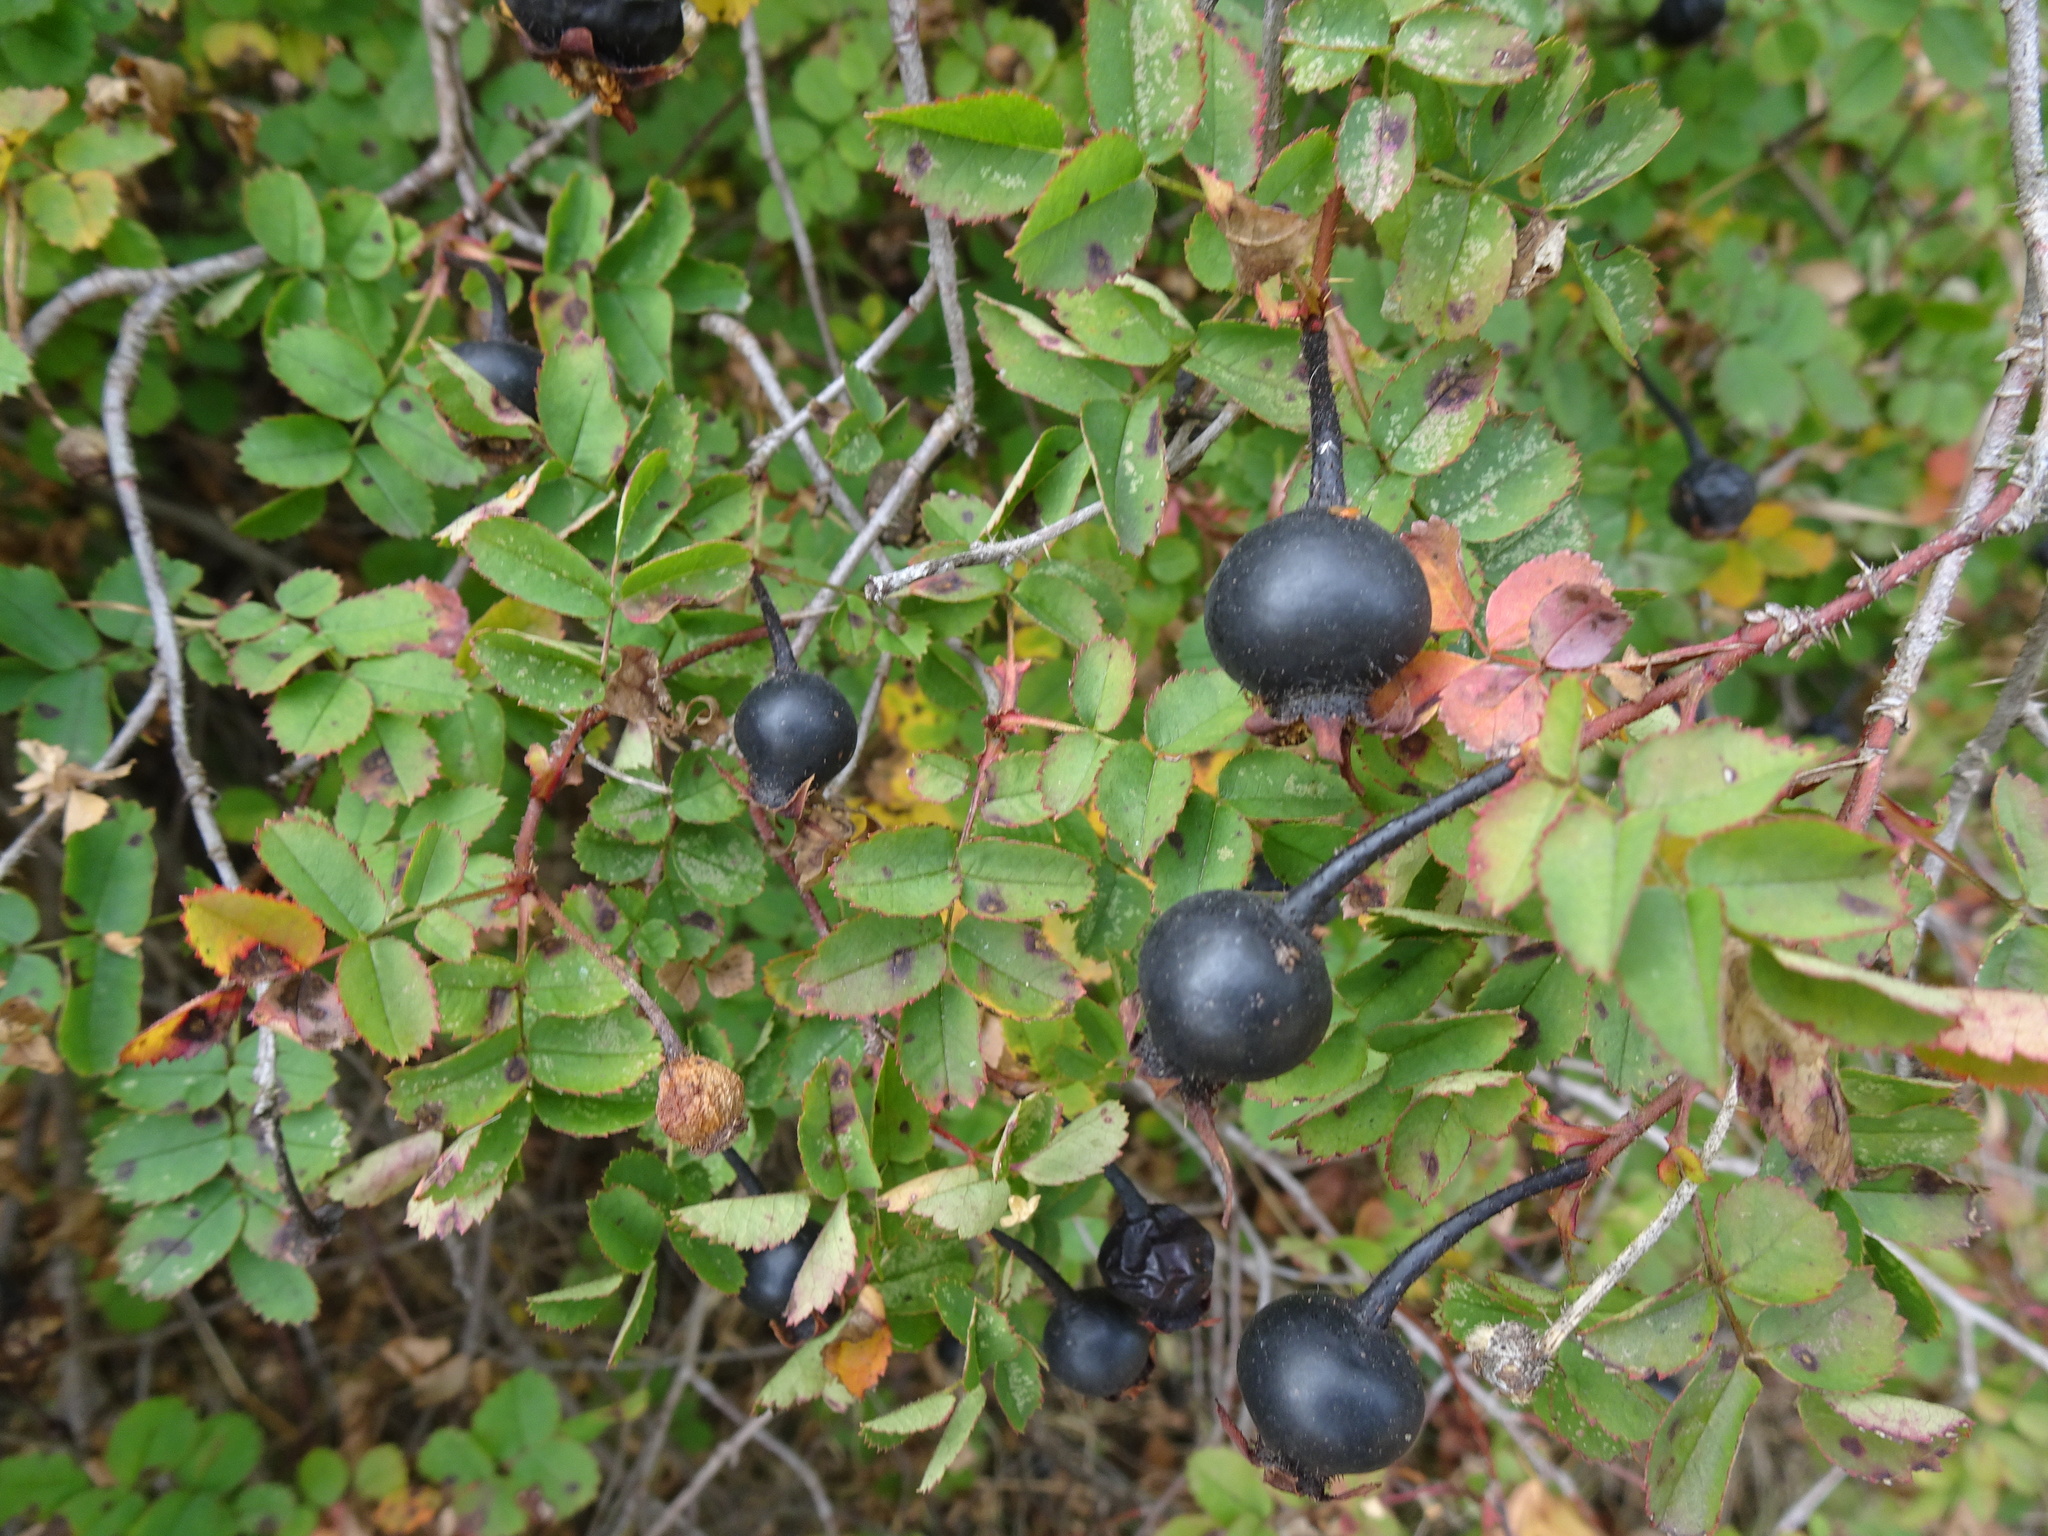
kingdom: Plantae
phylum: Tracheophyta
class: Magnoliopsida
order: Rosales
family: Rosaceae
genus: Rosa
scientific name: Rosa spinosissima
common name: Burnet rose
